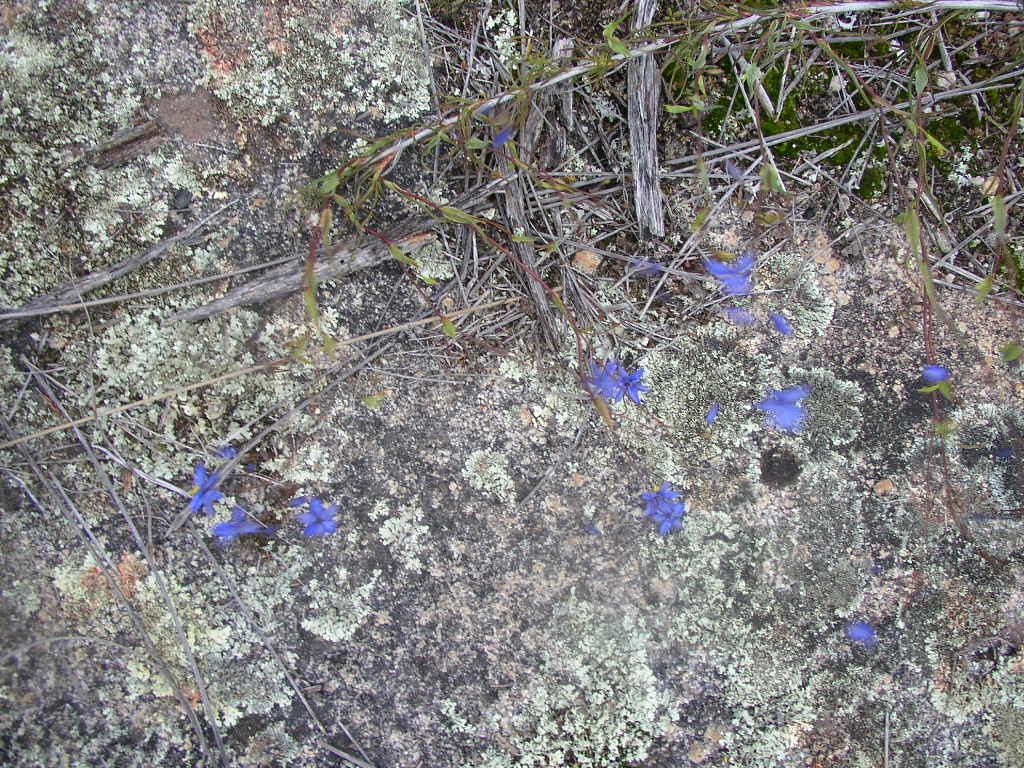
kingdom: Plantae
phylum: Tracheophyta
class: Liliopsida
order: Asparagales
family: Asphodelaceae
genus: Stypandra
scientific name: Stypandra glauca
